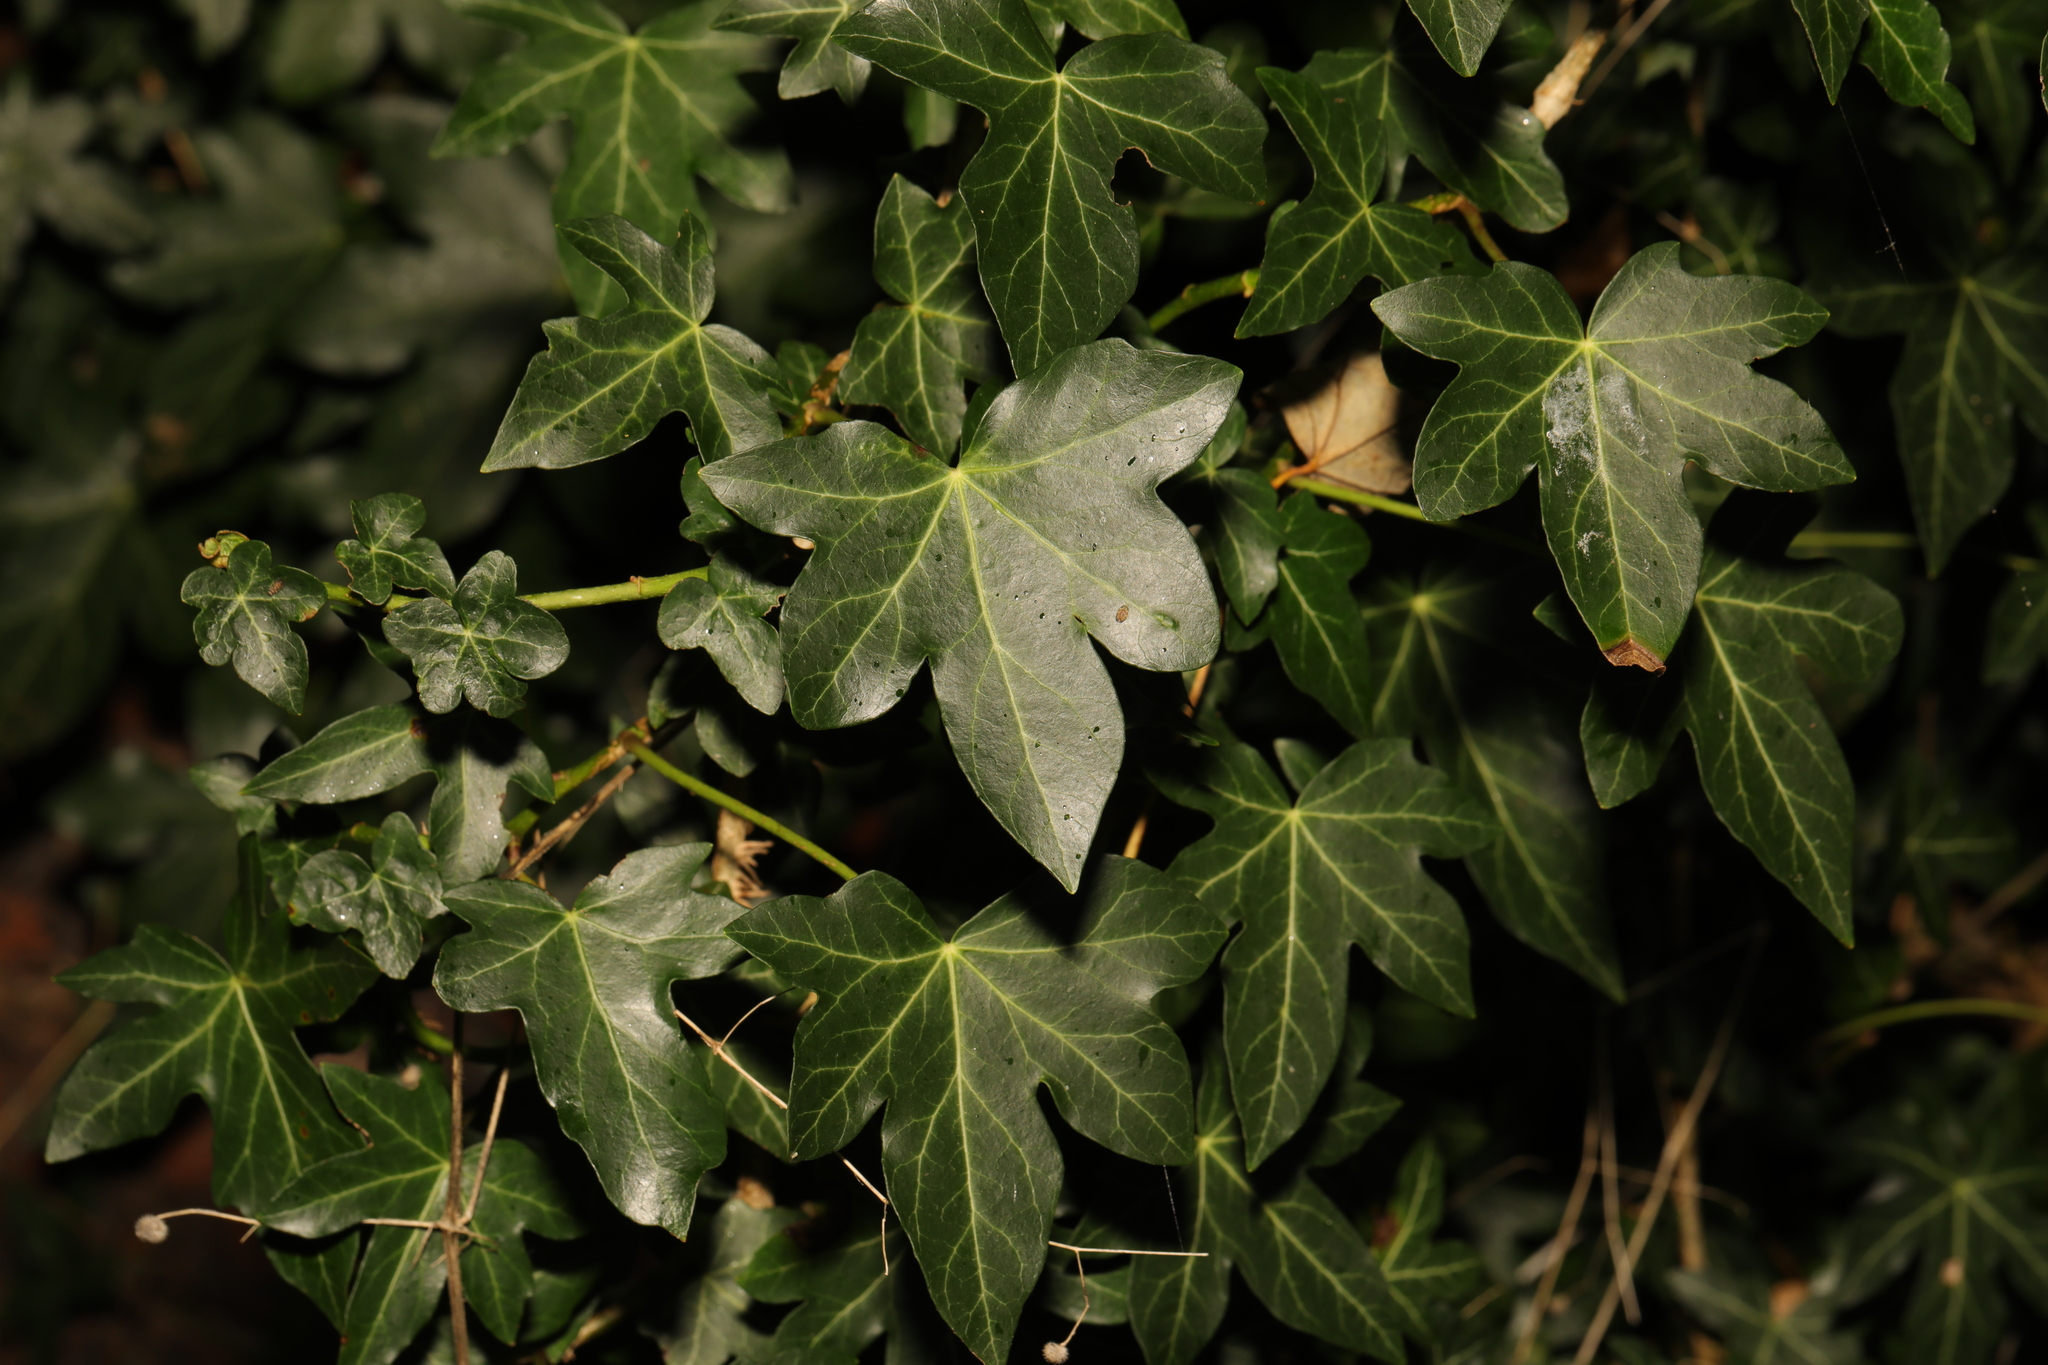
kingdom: Plantae
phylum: Tracheophyta
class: Magnoliopsida
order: Apiales
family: Araliaceae
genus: Hedera
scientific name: Hedera helix
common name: Ivy
